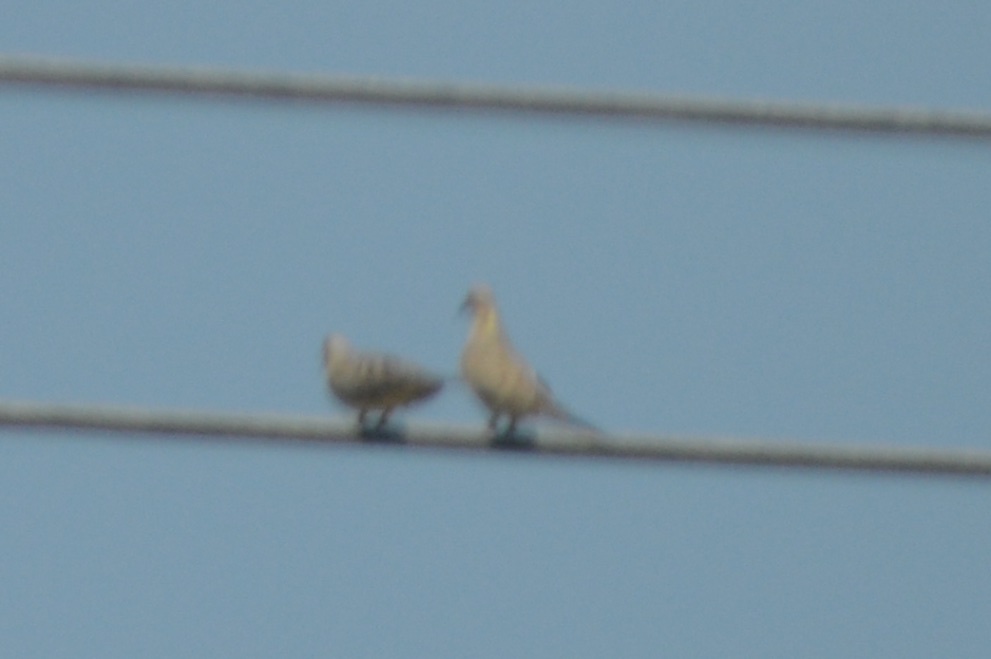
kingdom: Animalia
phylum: Chordata
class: Aves
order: Columbiformes
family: Columbidae
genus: Zenaida
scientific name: Zenaida macroura
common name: Mourning dove
